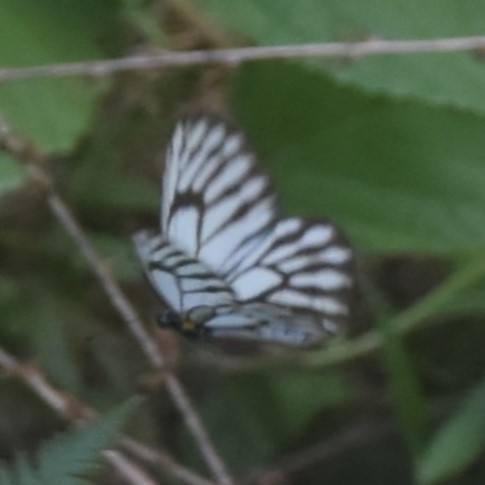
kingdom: Animalia
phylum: Arthropoda
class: Insecta
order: Lepidoptera
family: Pieridae
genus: Aporia
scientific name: Aporia agathon
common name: Great blackvein
